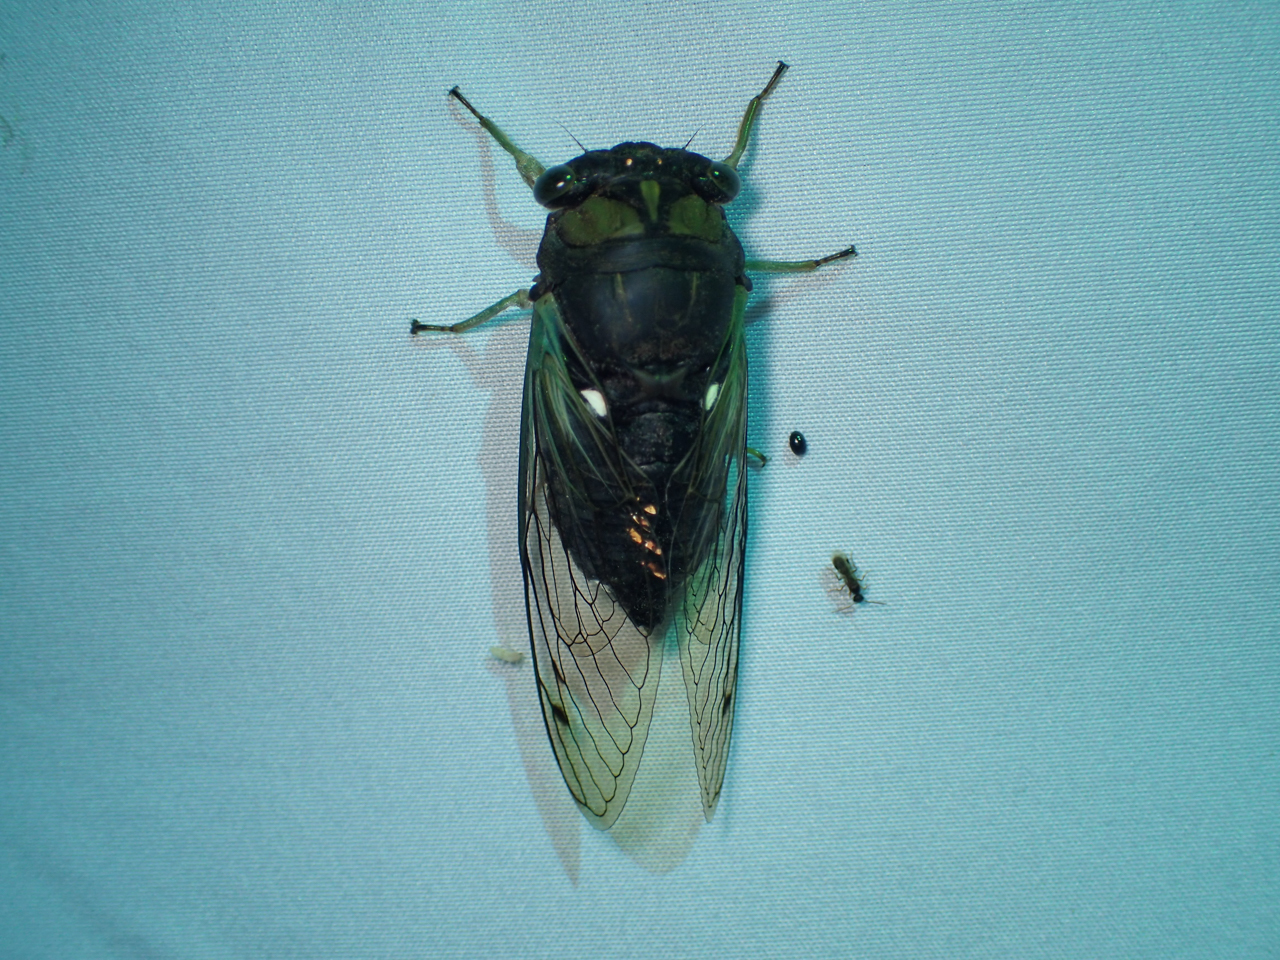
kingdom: Animalia
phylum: Arthropoda
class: Insecta
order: Hemiptera
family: Cicadidae
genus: Neotibicen
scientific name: Neotibicen tibicen
